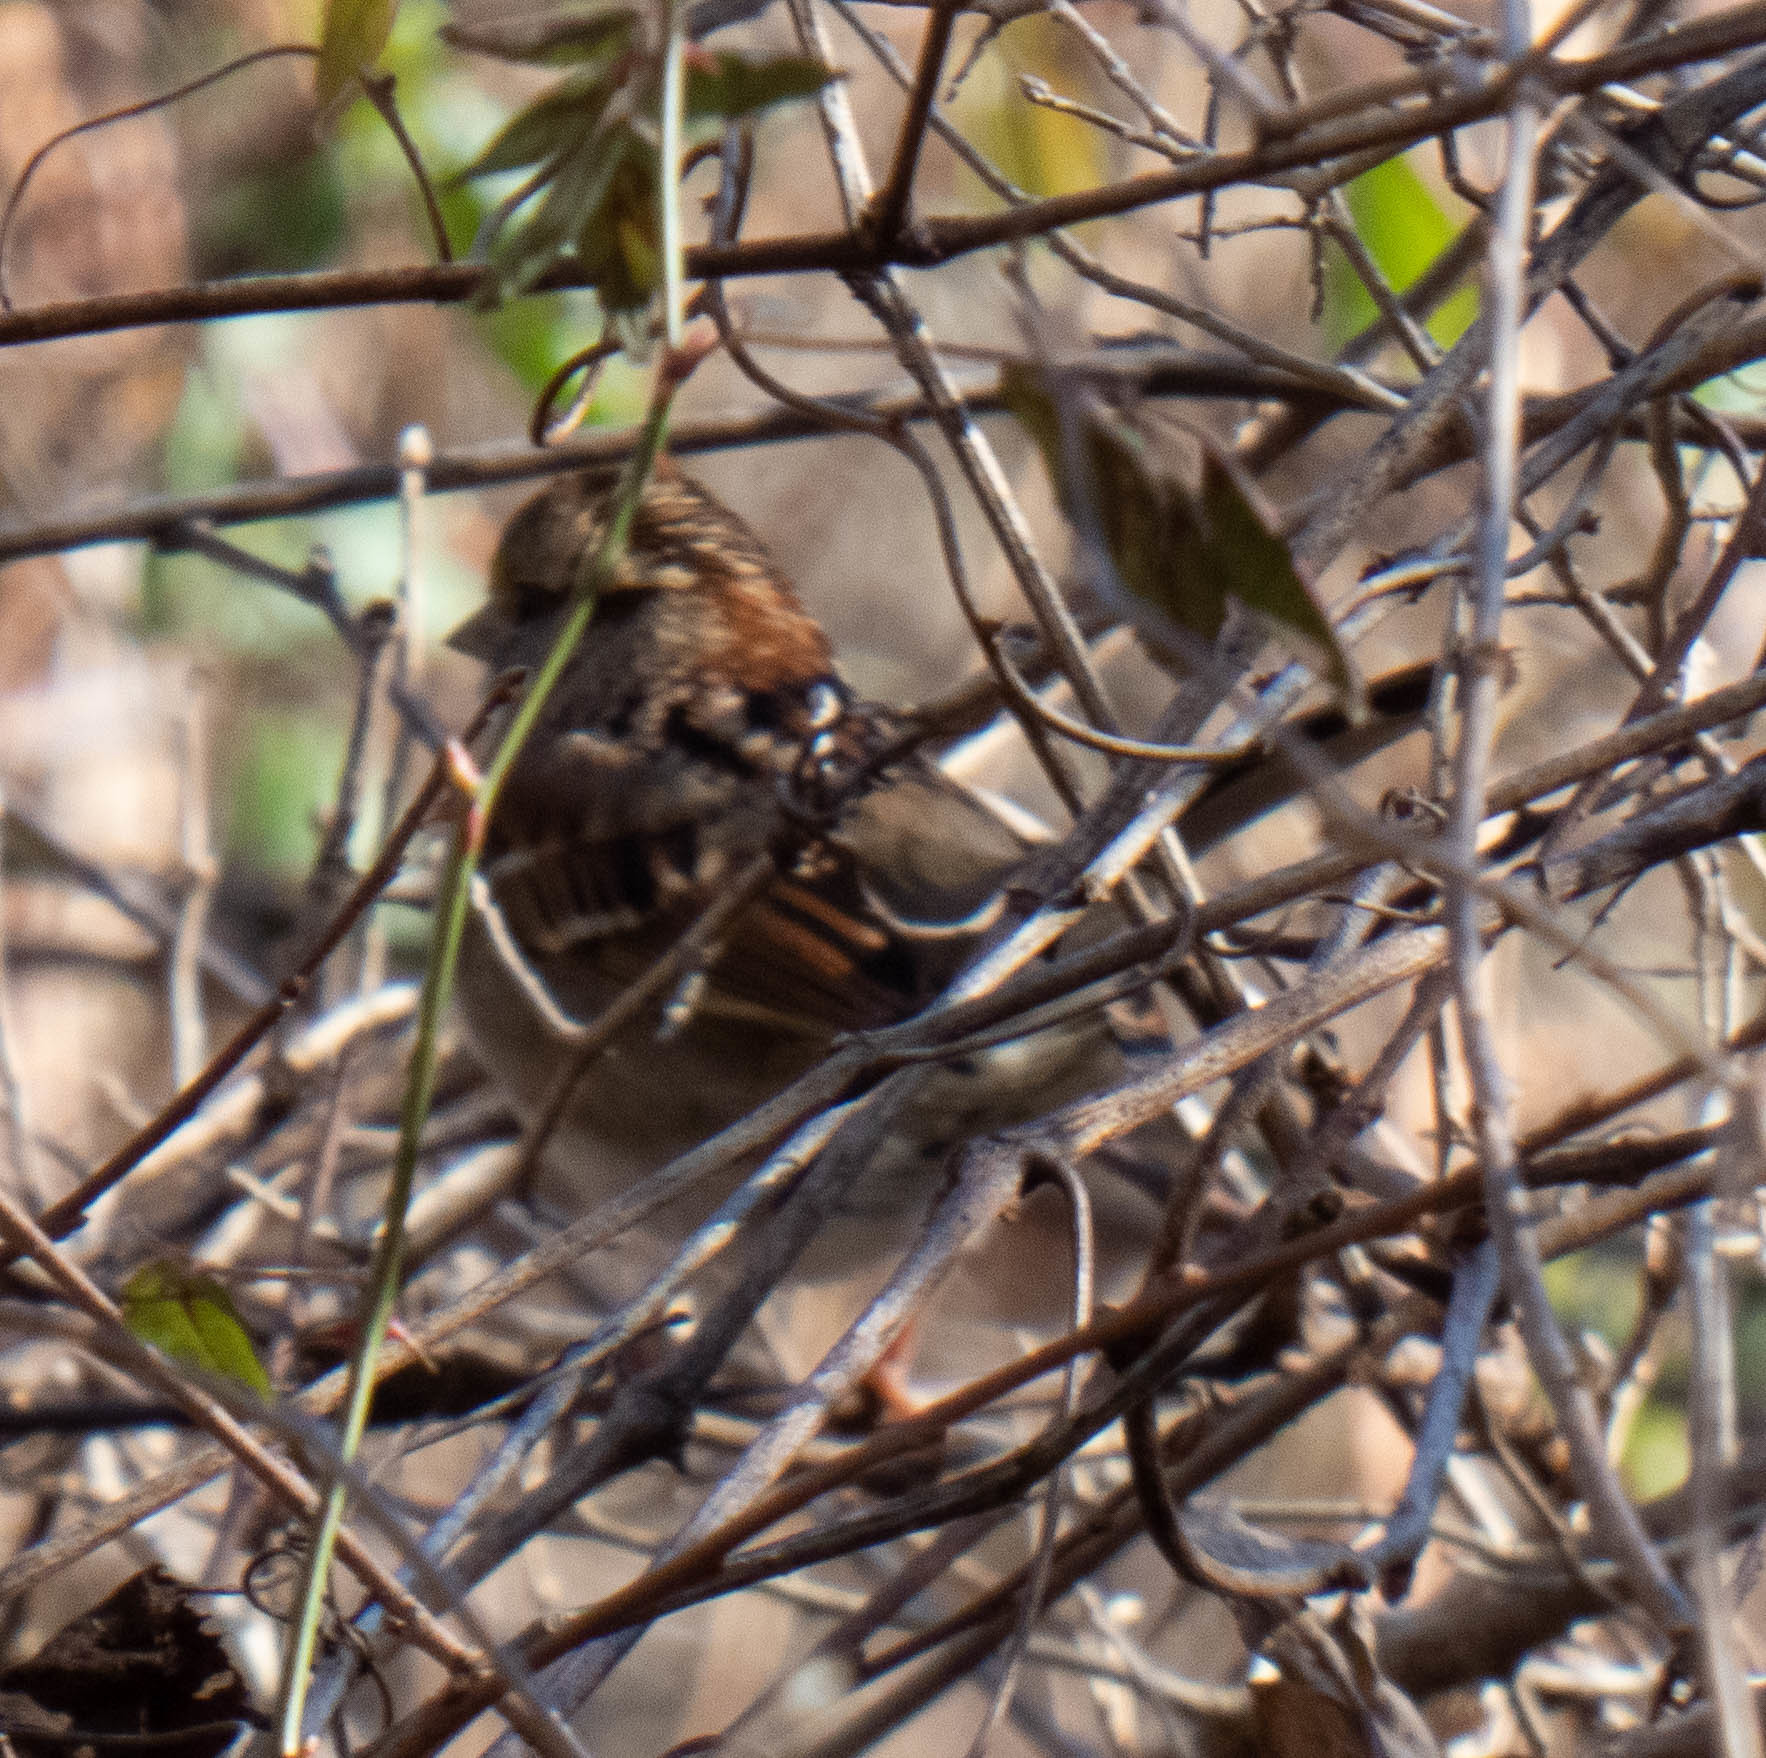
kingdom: Animalia
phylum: Chordata
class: Aves
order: Passeriformes
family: Passerellidae
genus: Zonotrichia
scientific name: Zonotrichia albicollis
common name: White-throated sparrow
